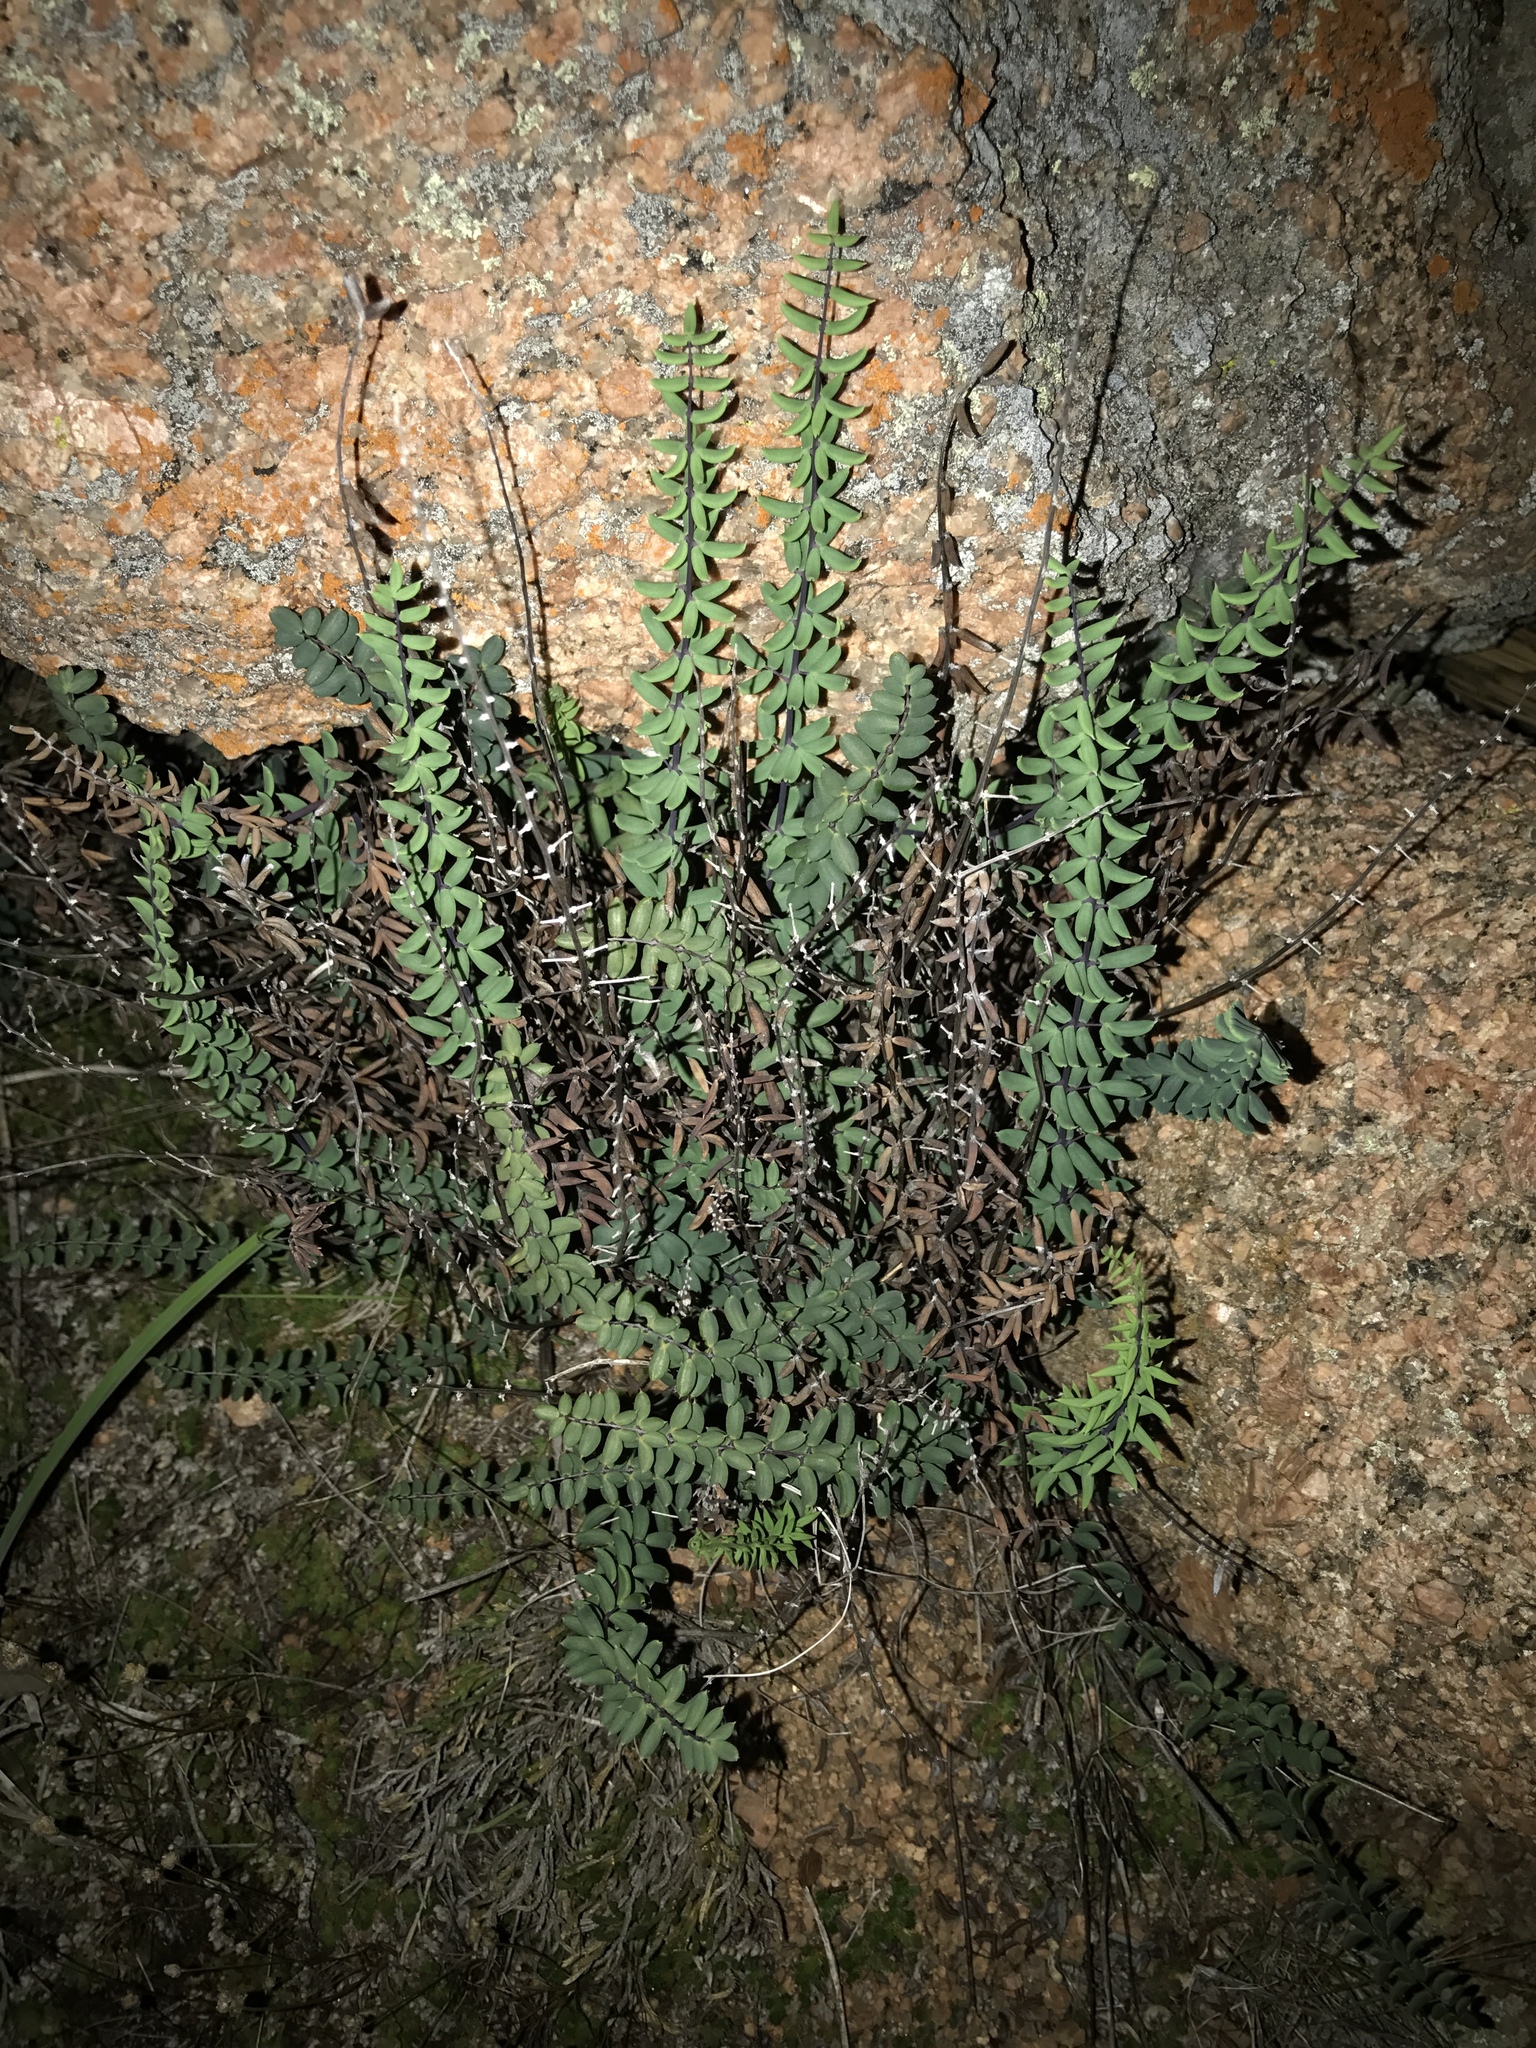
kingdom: Plantae
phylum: Tracheophyta
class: Polypodiopsida
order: Polypodiales
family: Pteridaceae
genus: Pellaea
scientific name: Pellaea wrightiana
